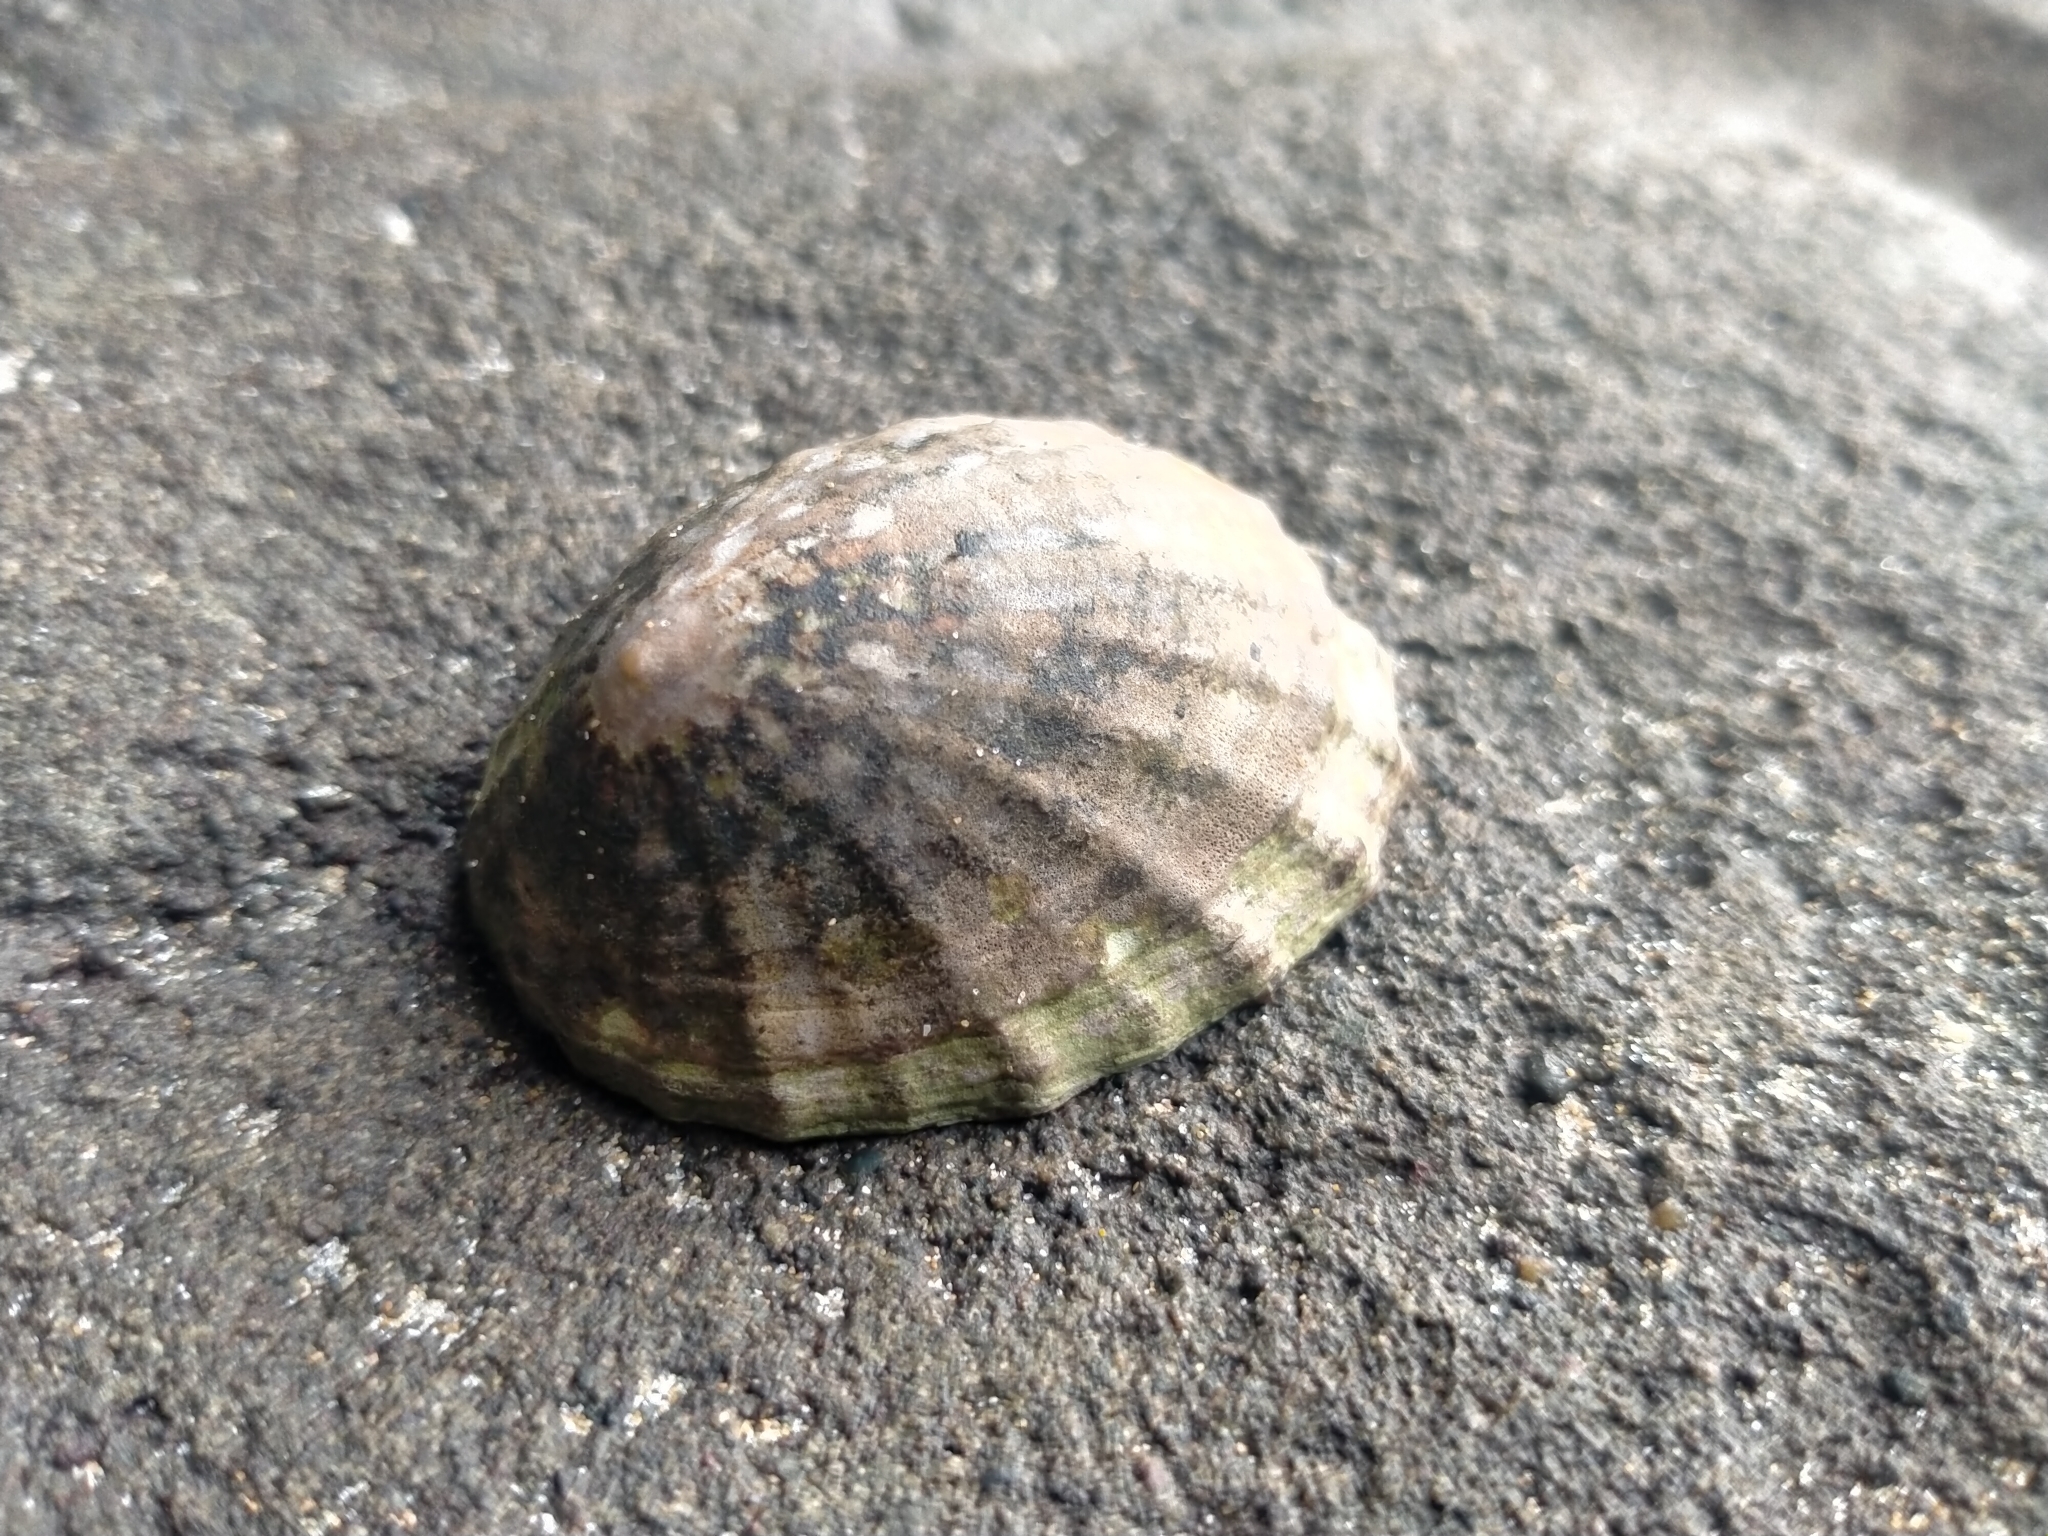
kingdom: Animalia
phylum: Mollusca
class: Gastropoda
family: Nacellidae
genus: Cellana
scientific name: Cellana strigilis
